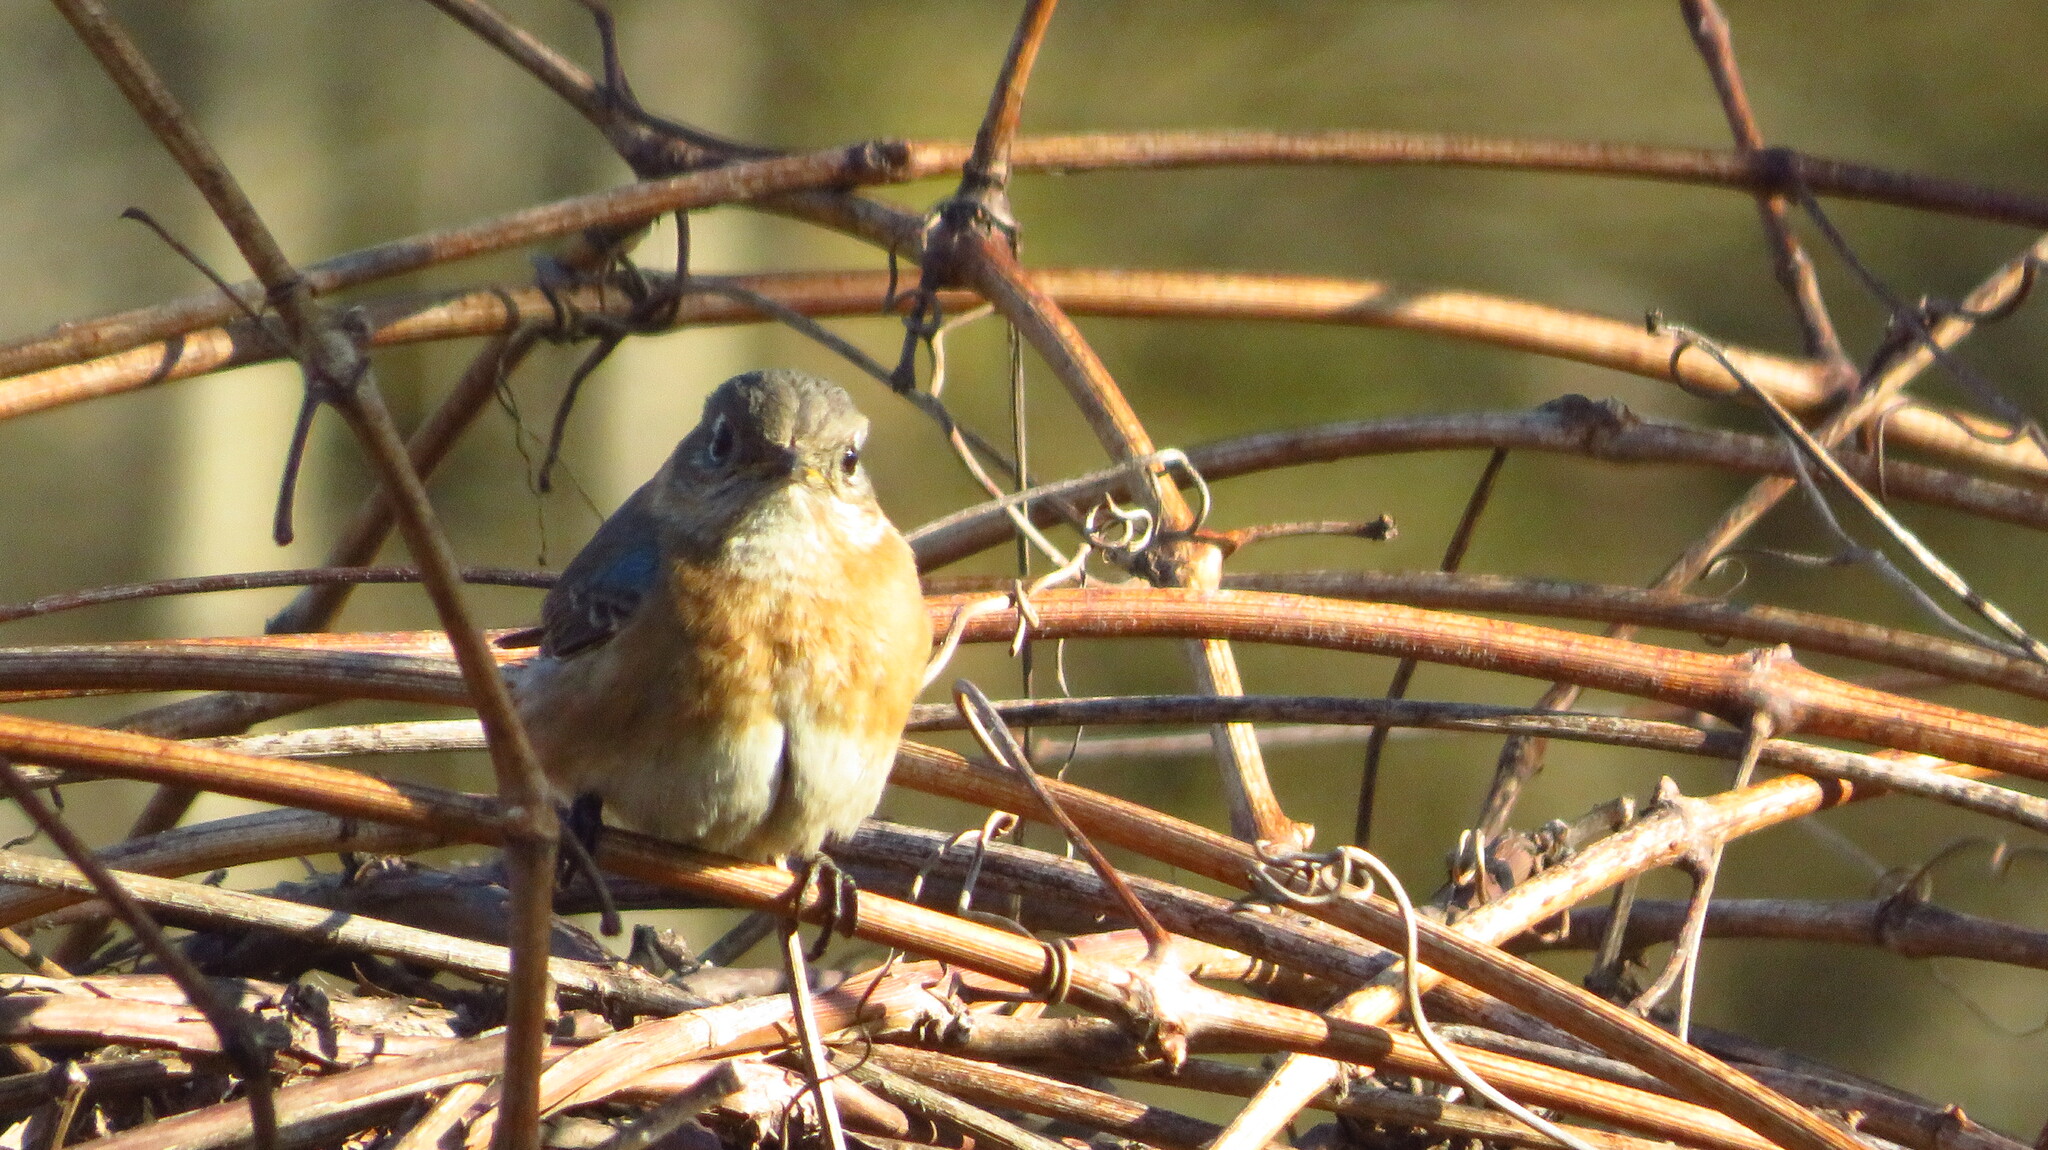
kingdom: Animalia
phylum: Chordata
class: Aves
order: Passeriformes
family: Turdidae
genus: Sialia
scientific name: Sialia sialis
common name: Eastern bluebird
